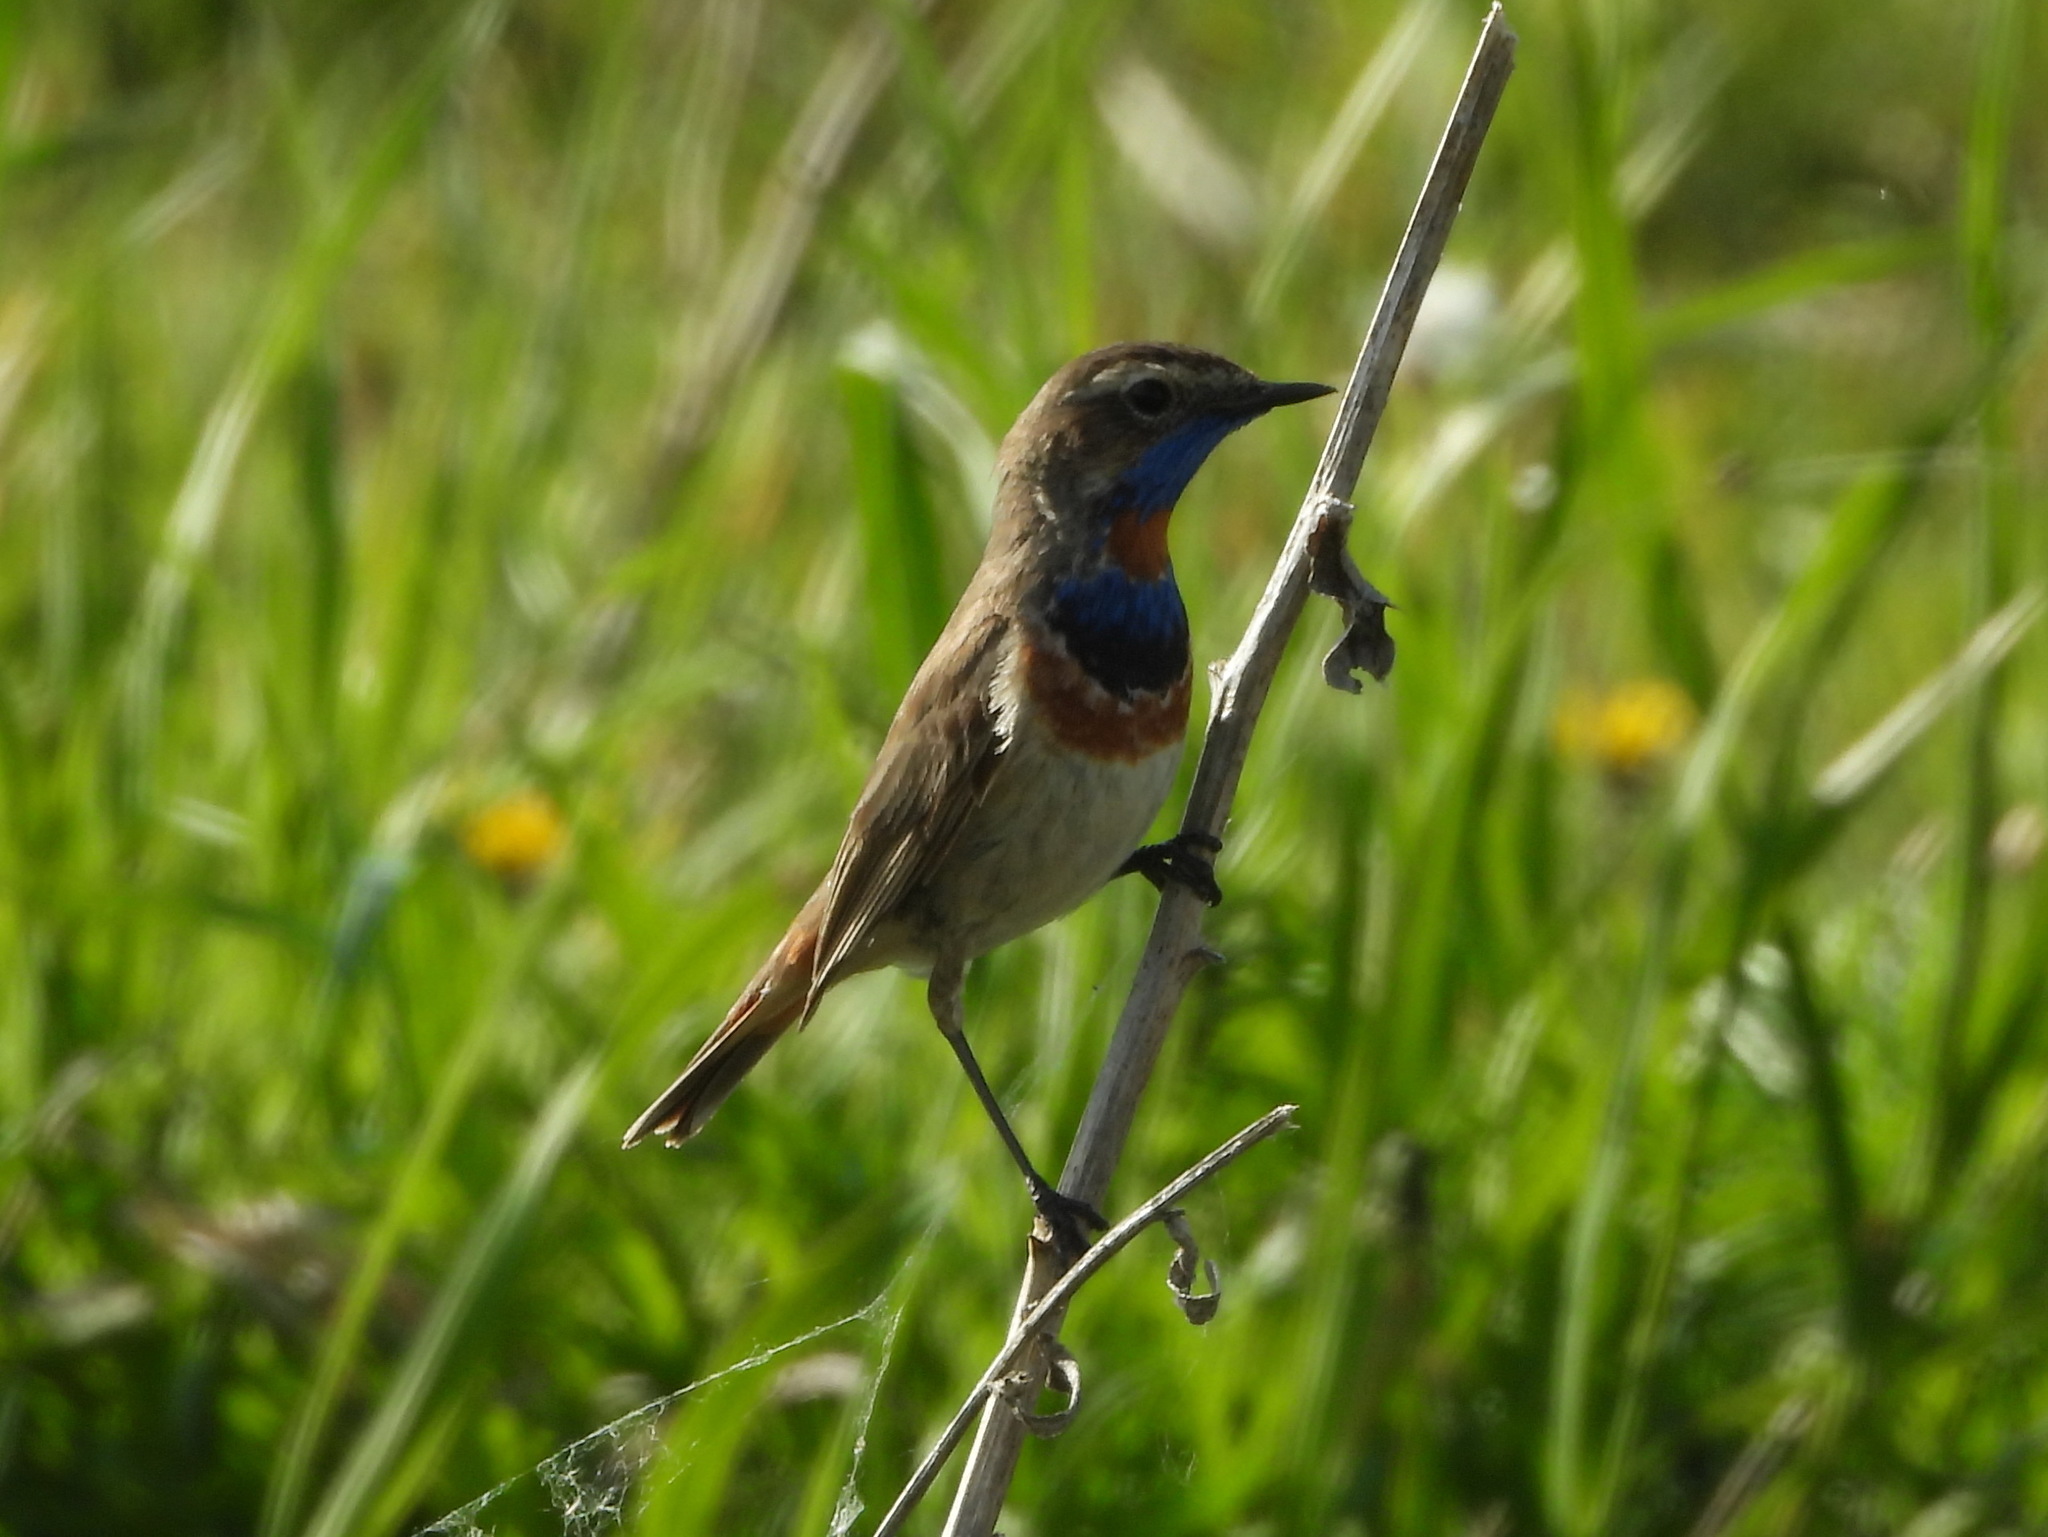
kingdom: Animalia
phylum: Chordata
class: Aves
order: Passeriformes
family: Muscicapidae
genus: Luscinia
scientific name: Luscinia svecica
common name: Bluethroat
